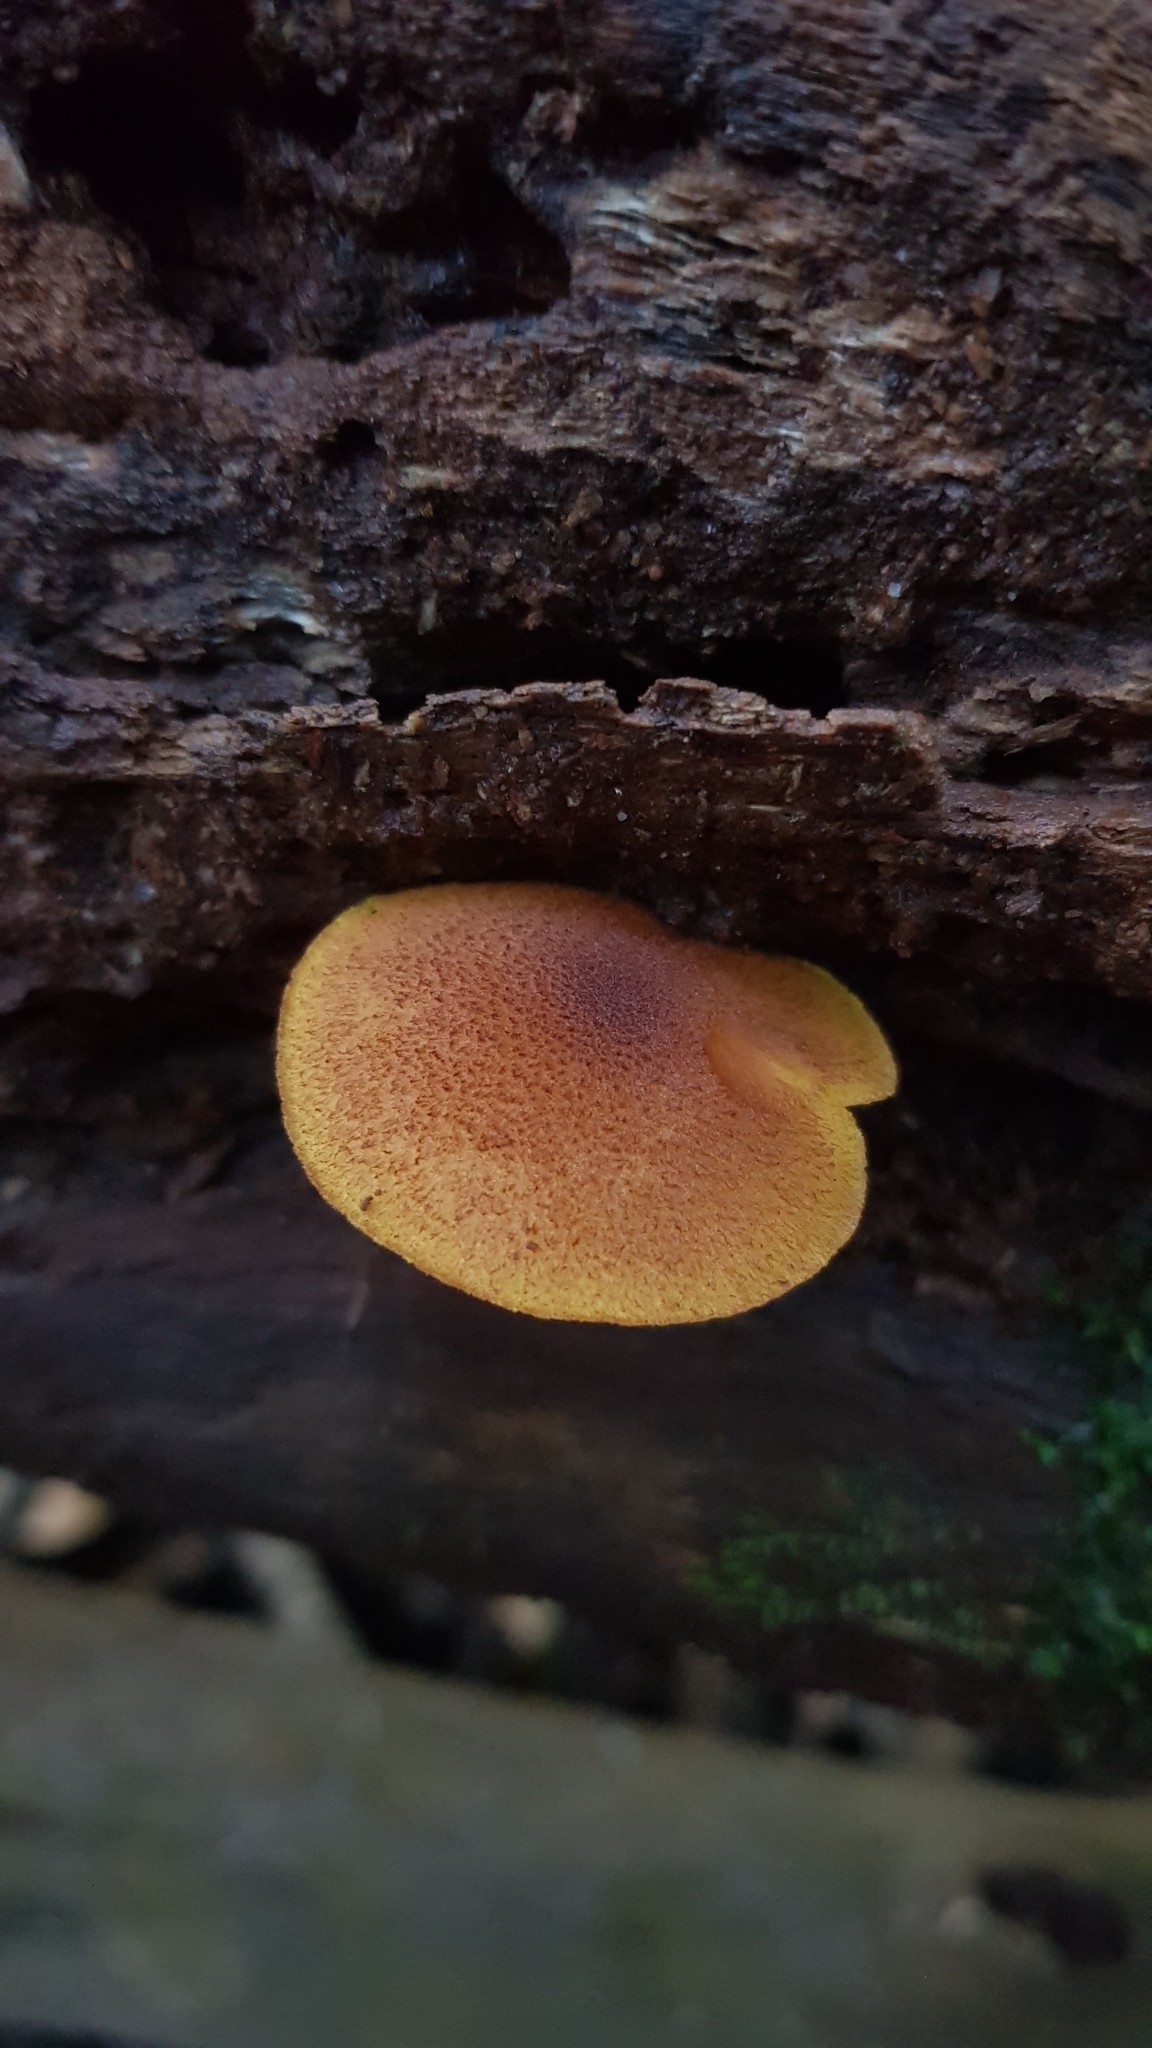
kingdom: Fungi
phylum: Basidiomycota
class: Agaricomycetes
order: Agaricales
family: Hymenogastraceae
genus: Gymnopilus
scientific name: Gymnopilus ferruginosus
